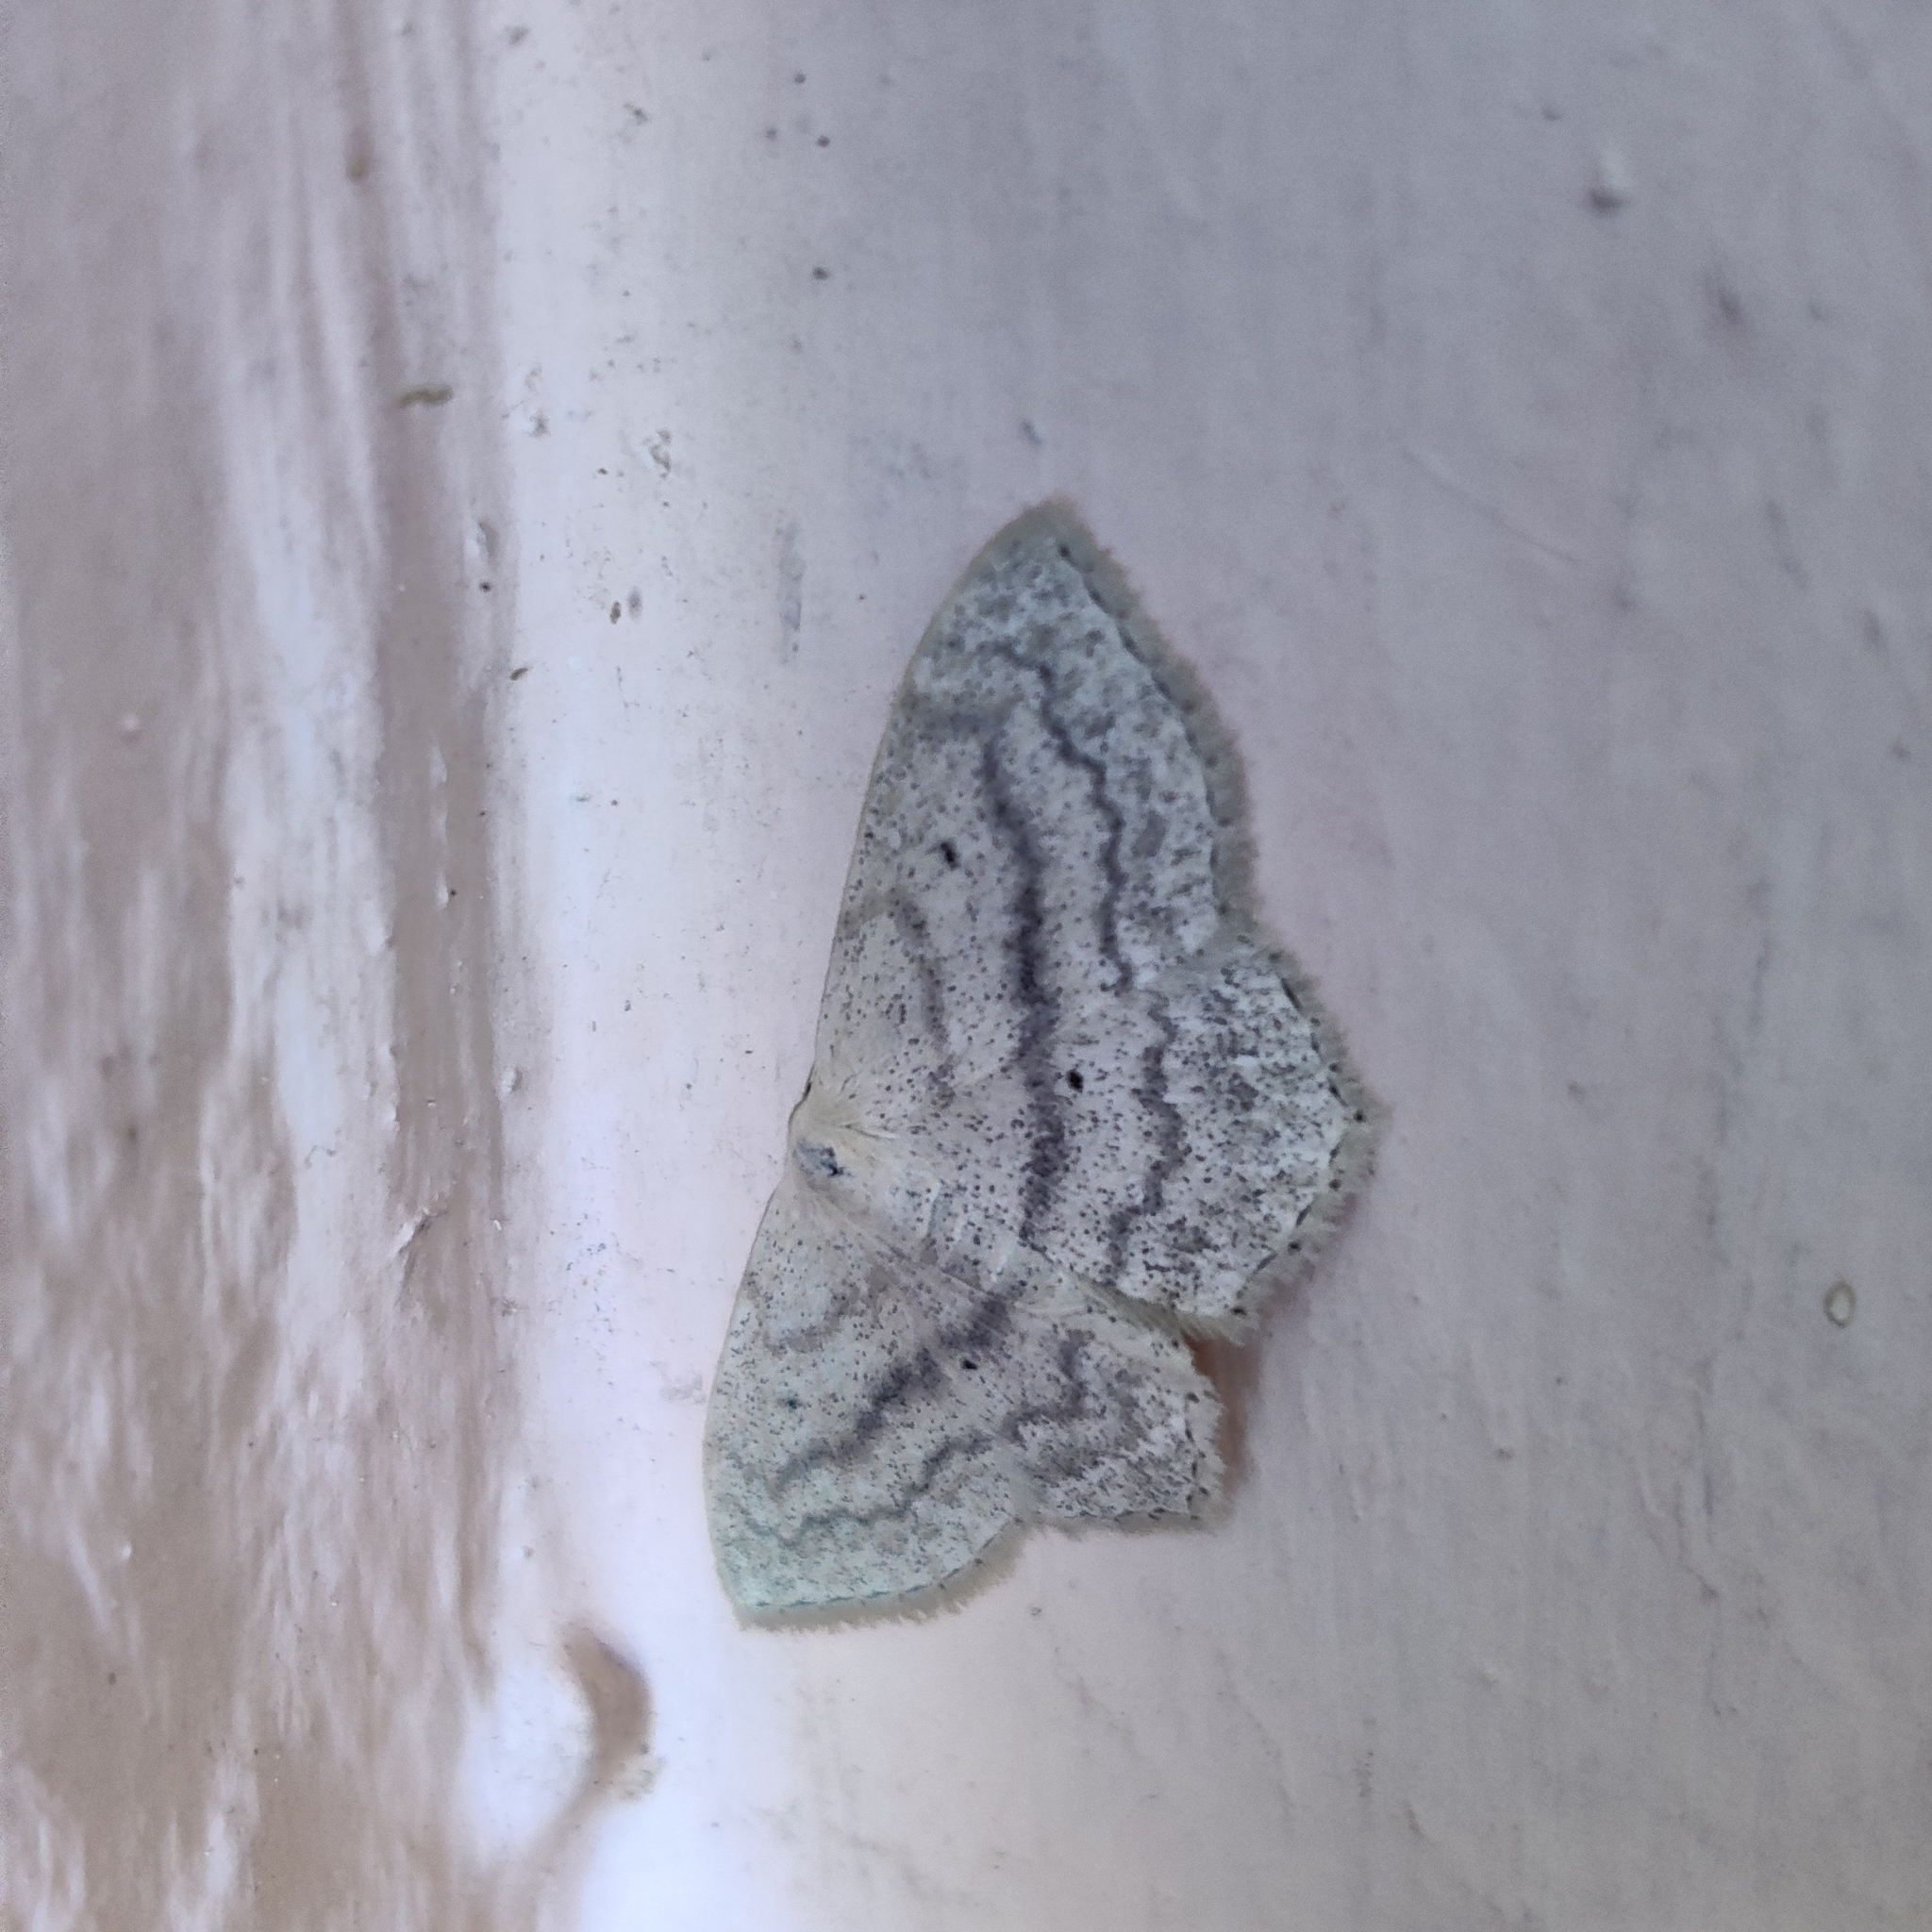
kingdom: Animalia
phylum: Arthropoda
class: Insecta
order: Lepidoptera
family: Geometridae
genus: Scopula
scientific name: Scopula nigropunctata
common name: Sub-angled wave
